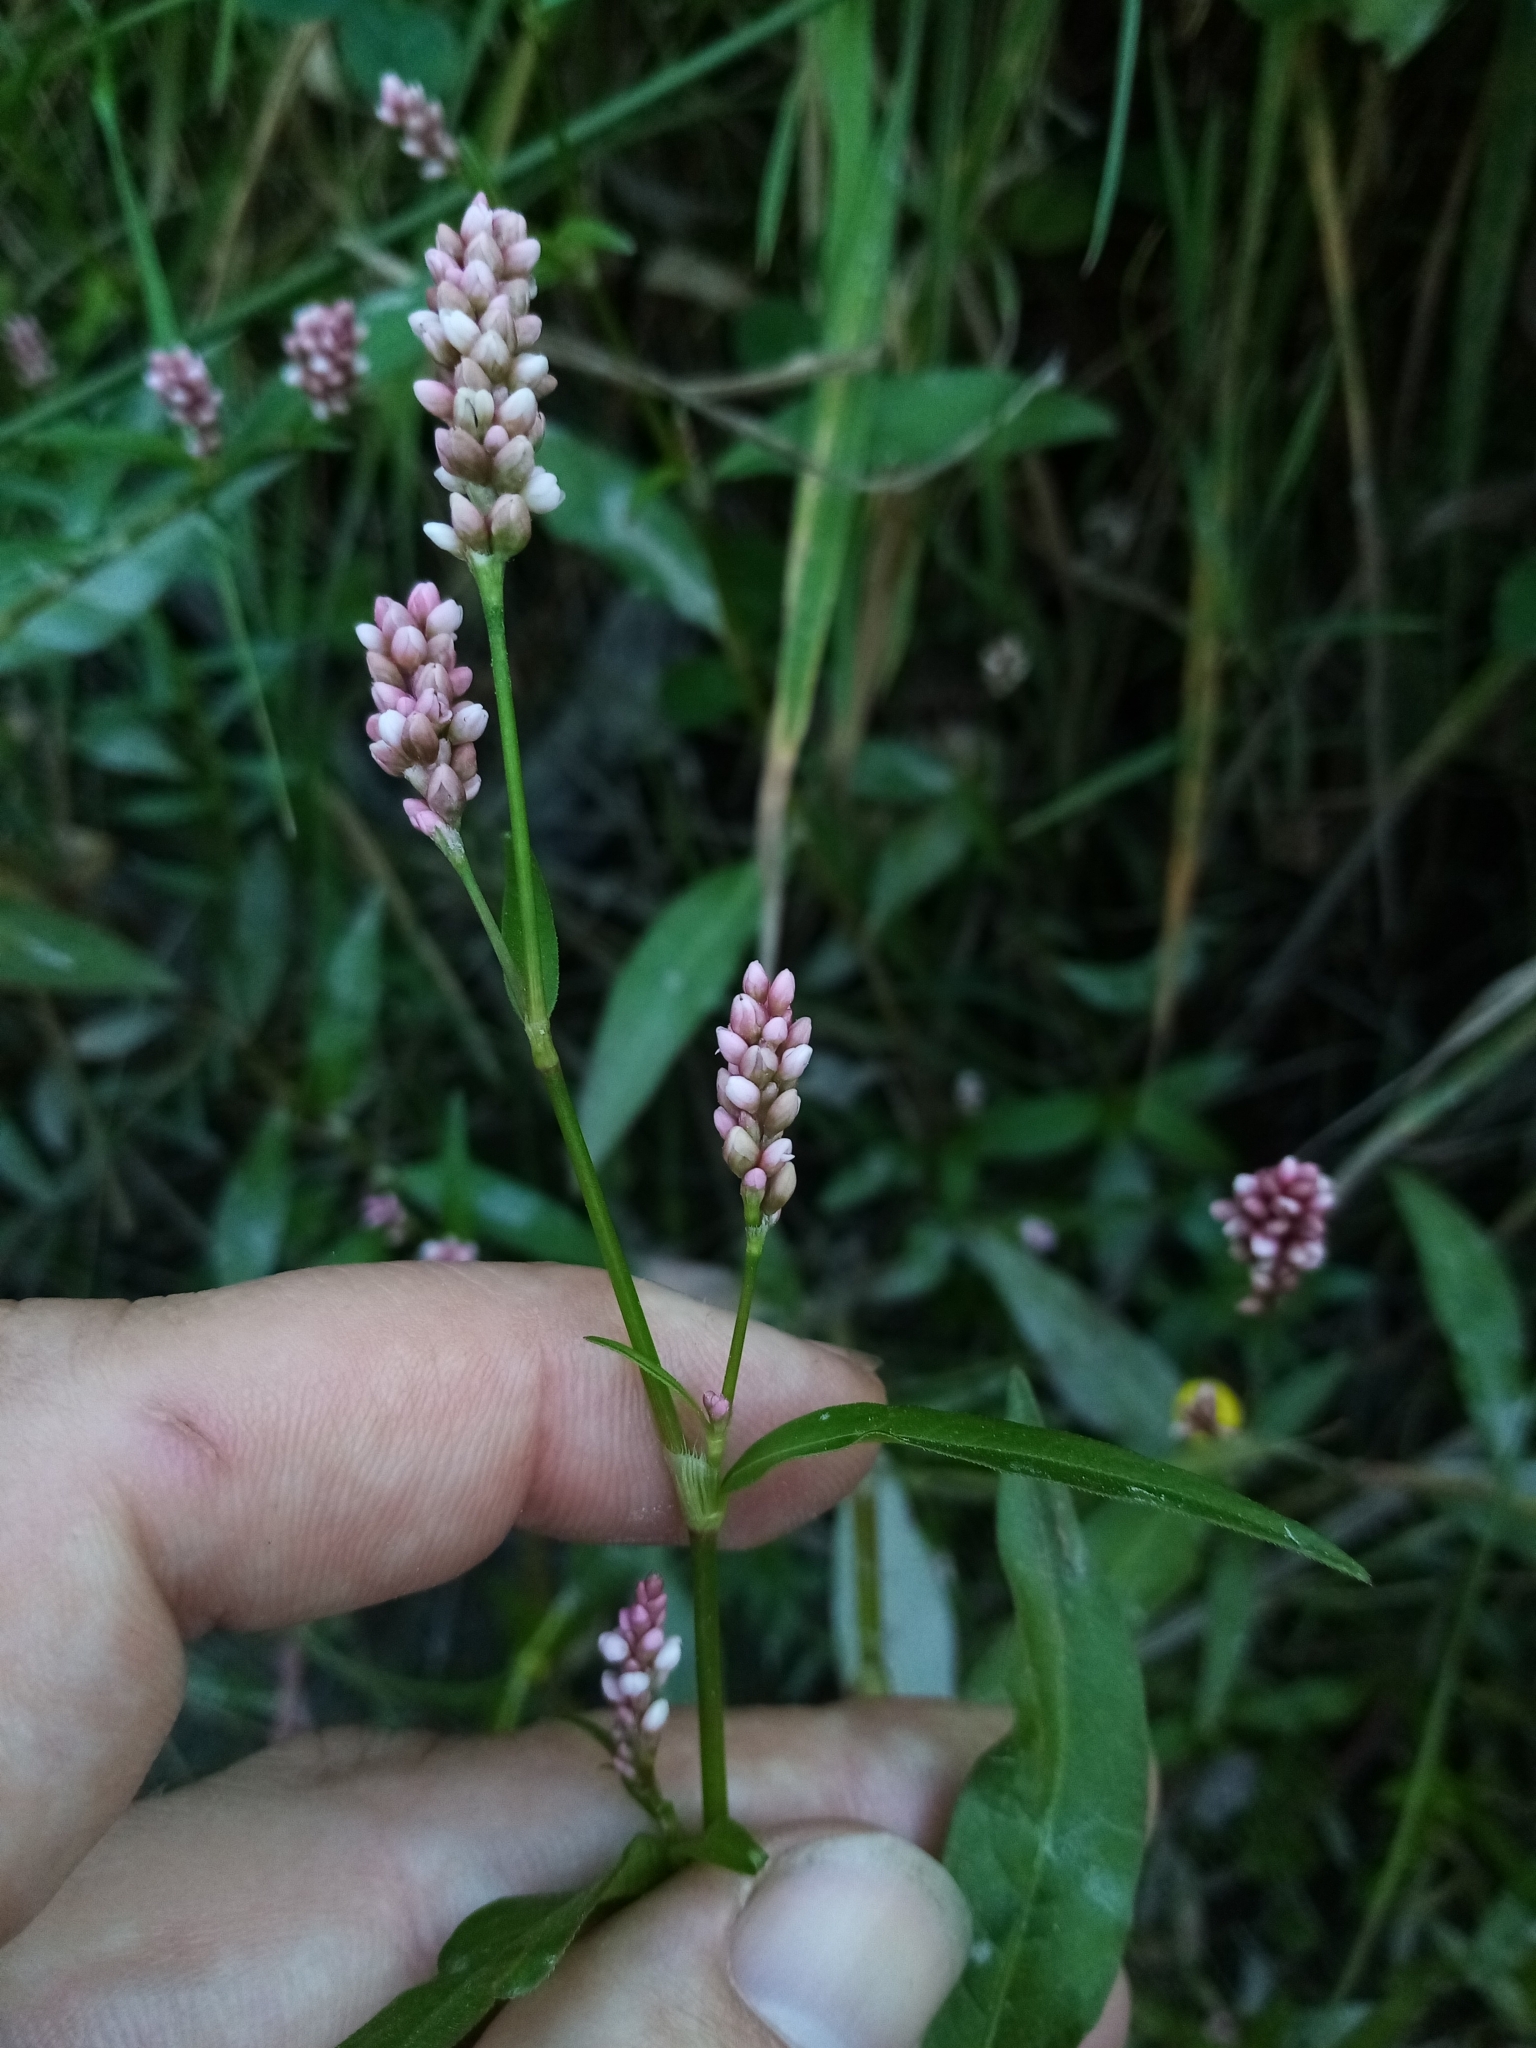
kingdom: Plantae
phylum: Tracheophyta
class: Magnoliopsida
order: Caryophyllales
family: Polygonaceae
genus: Persicaria
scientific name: Persicaria maculosa
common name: Redshank
